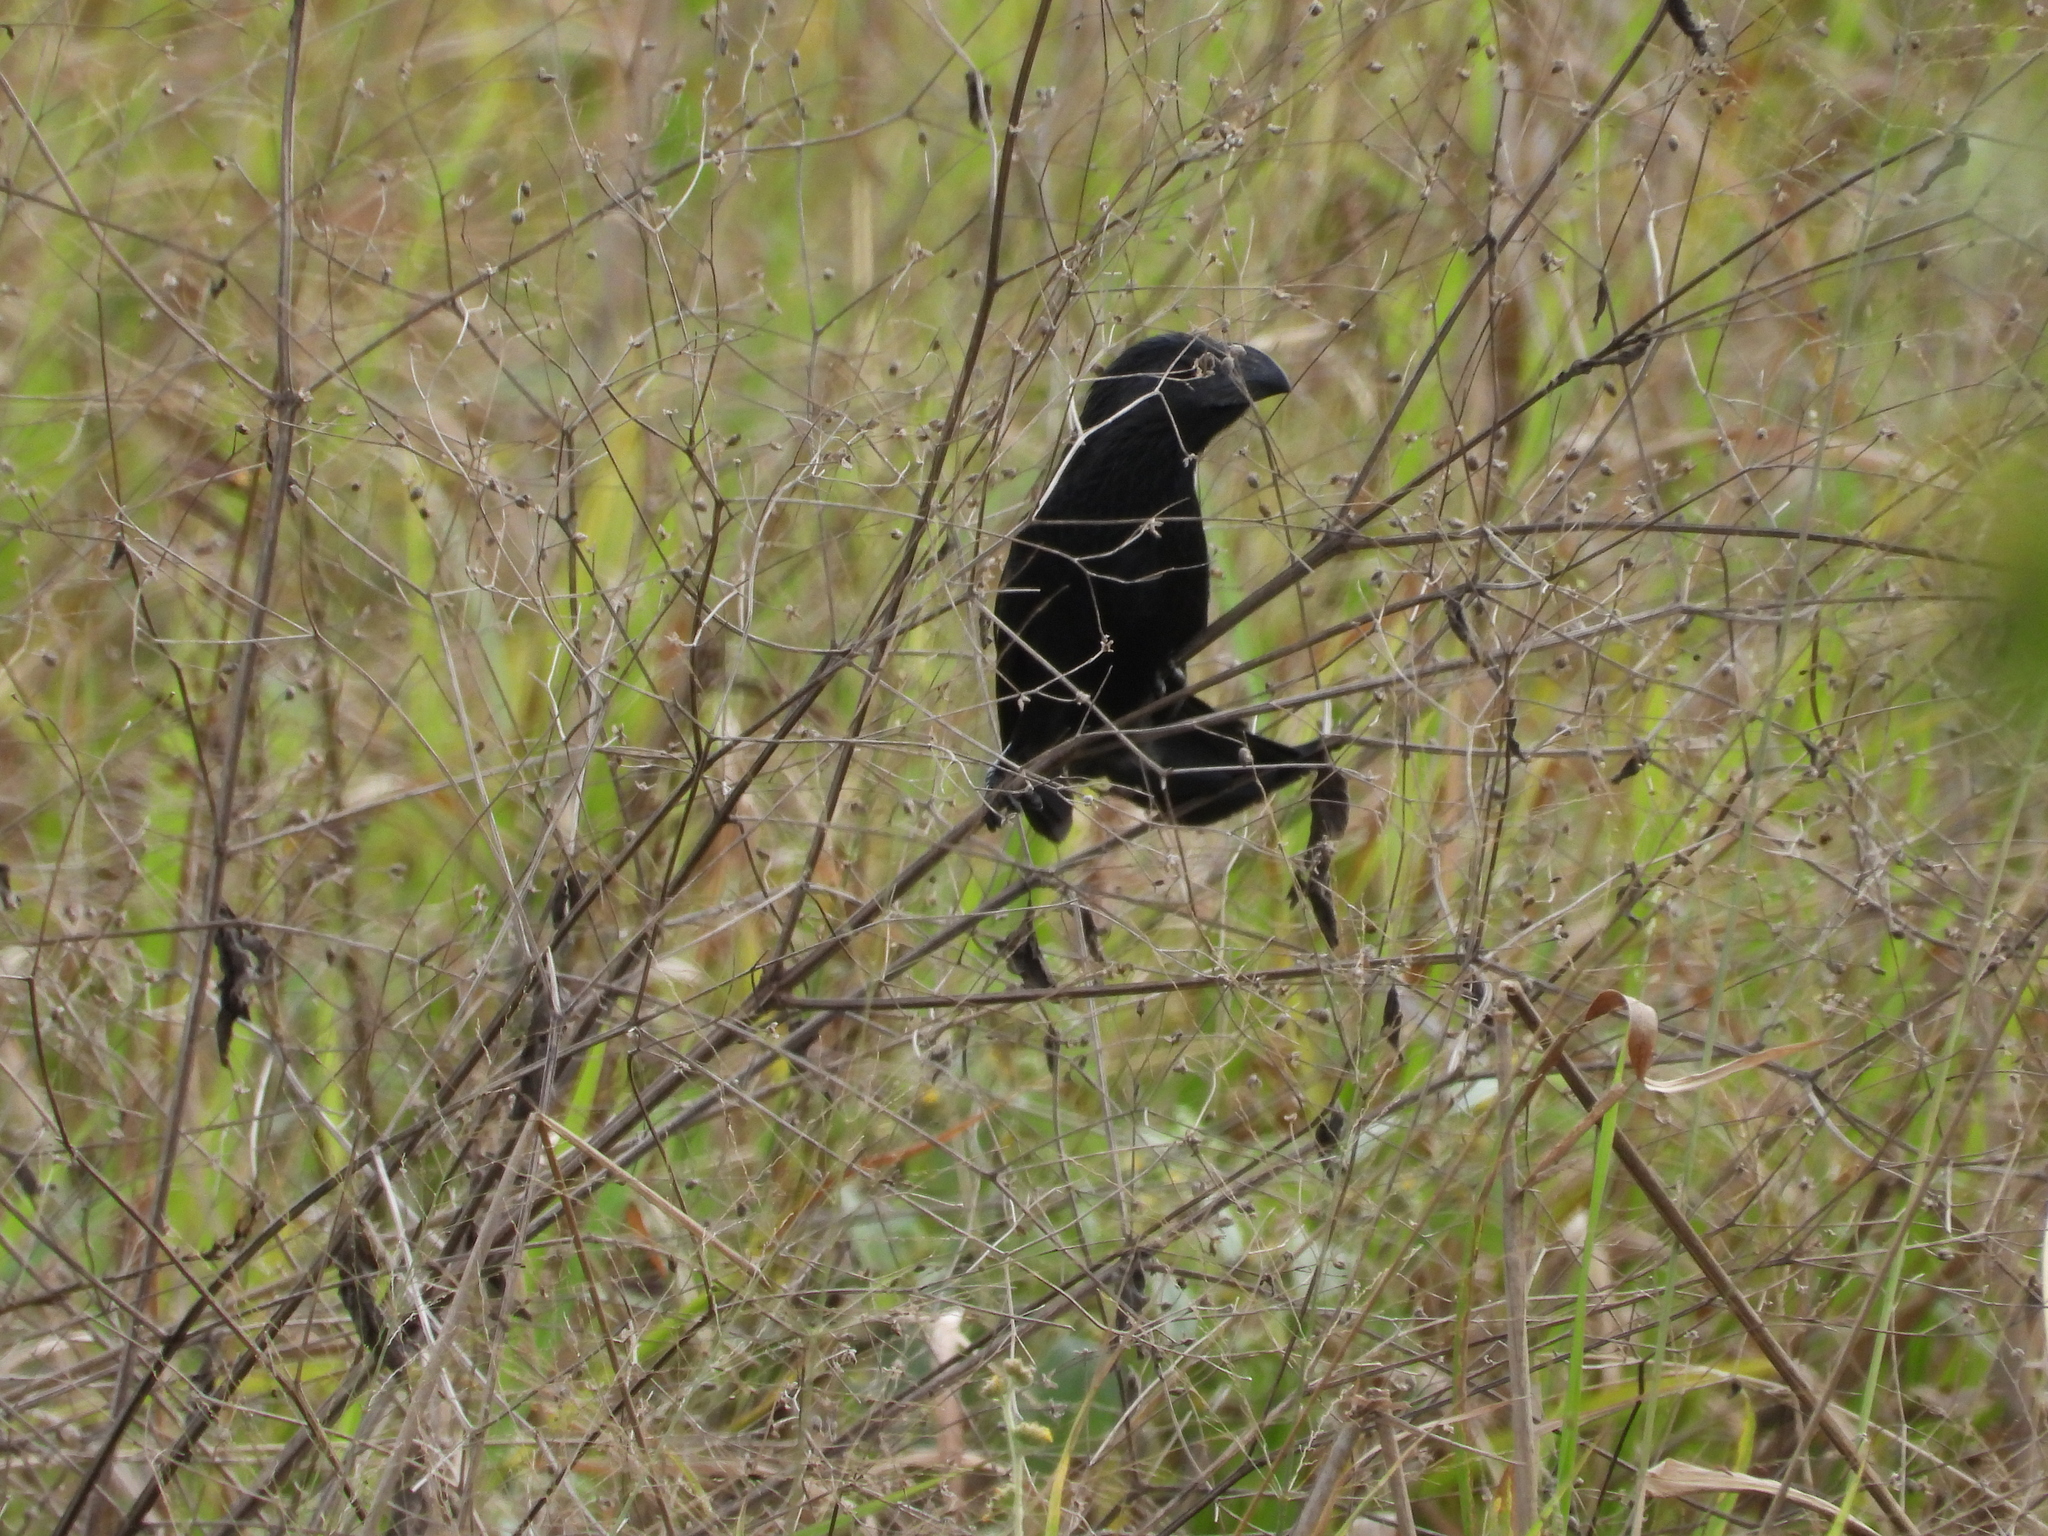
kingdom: Animalia
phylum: Chordata
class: Aves
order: Cuculiformes
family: Cuculidae
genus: Crotophaga
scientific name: Crotophaga sulcirostris
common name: Groove-billed ani
